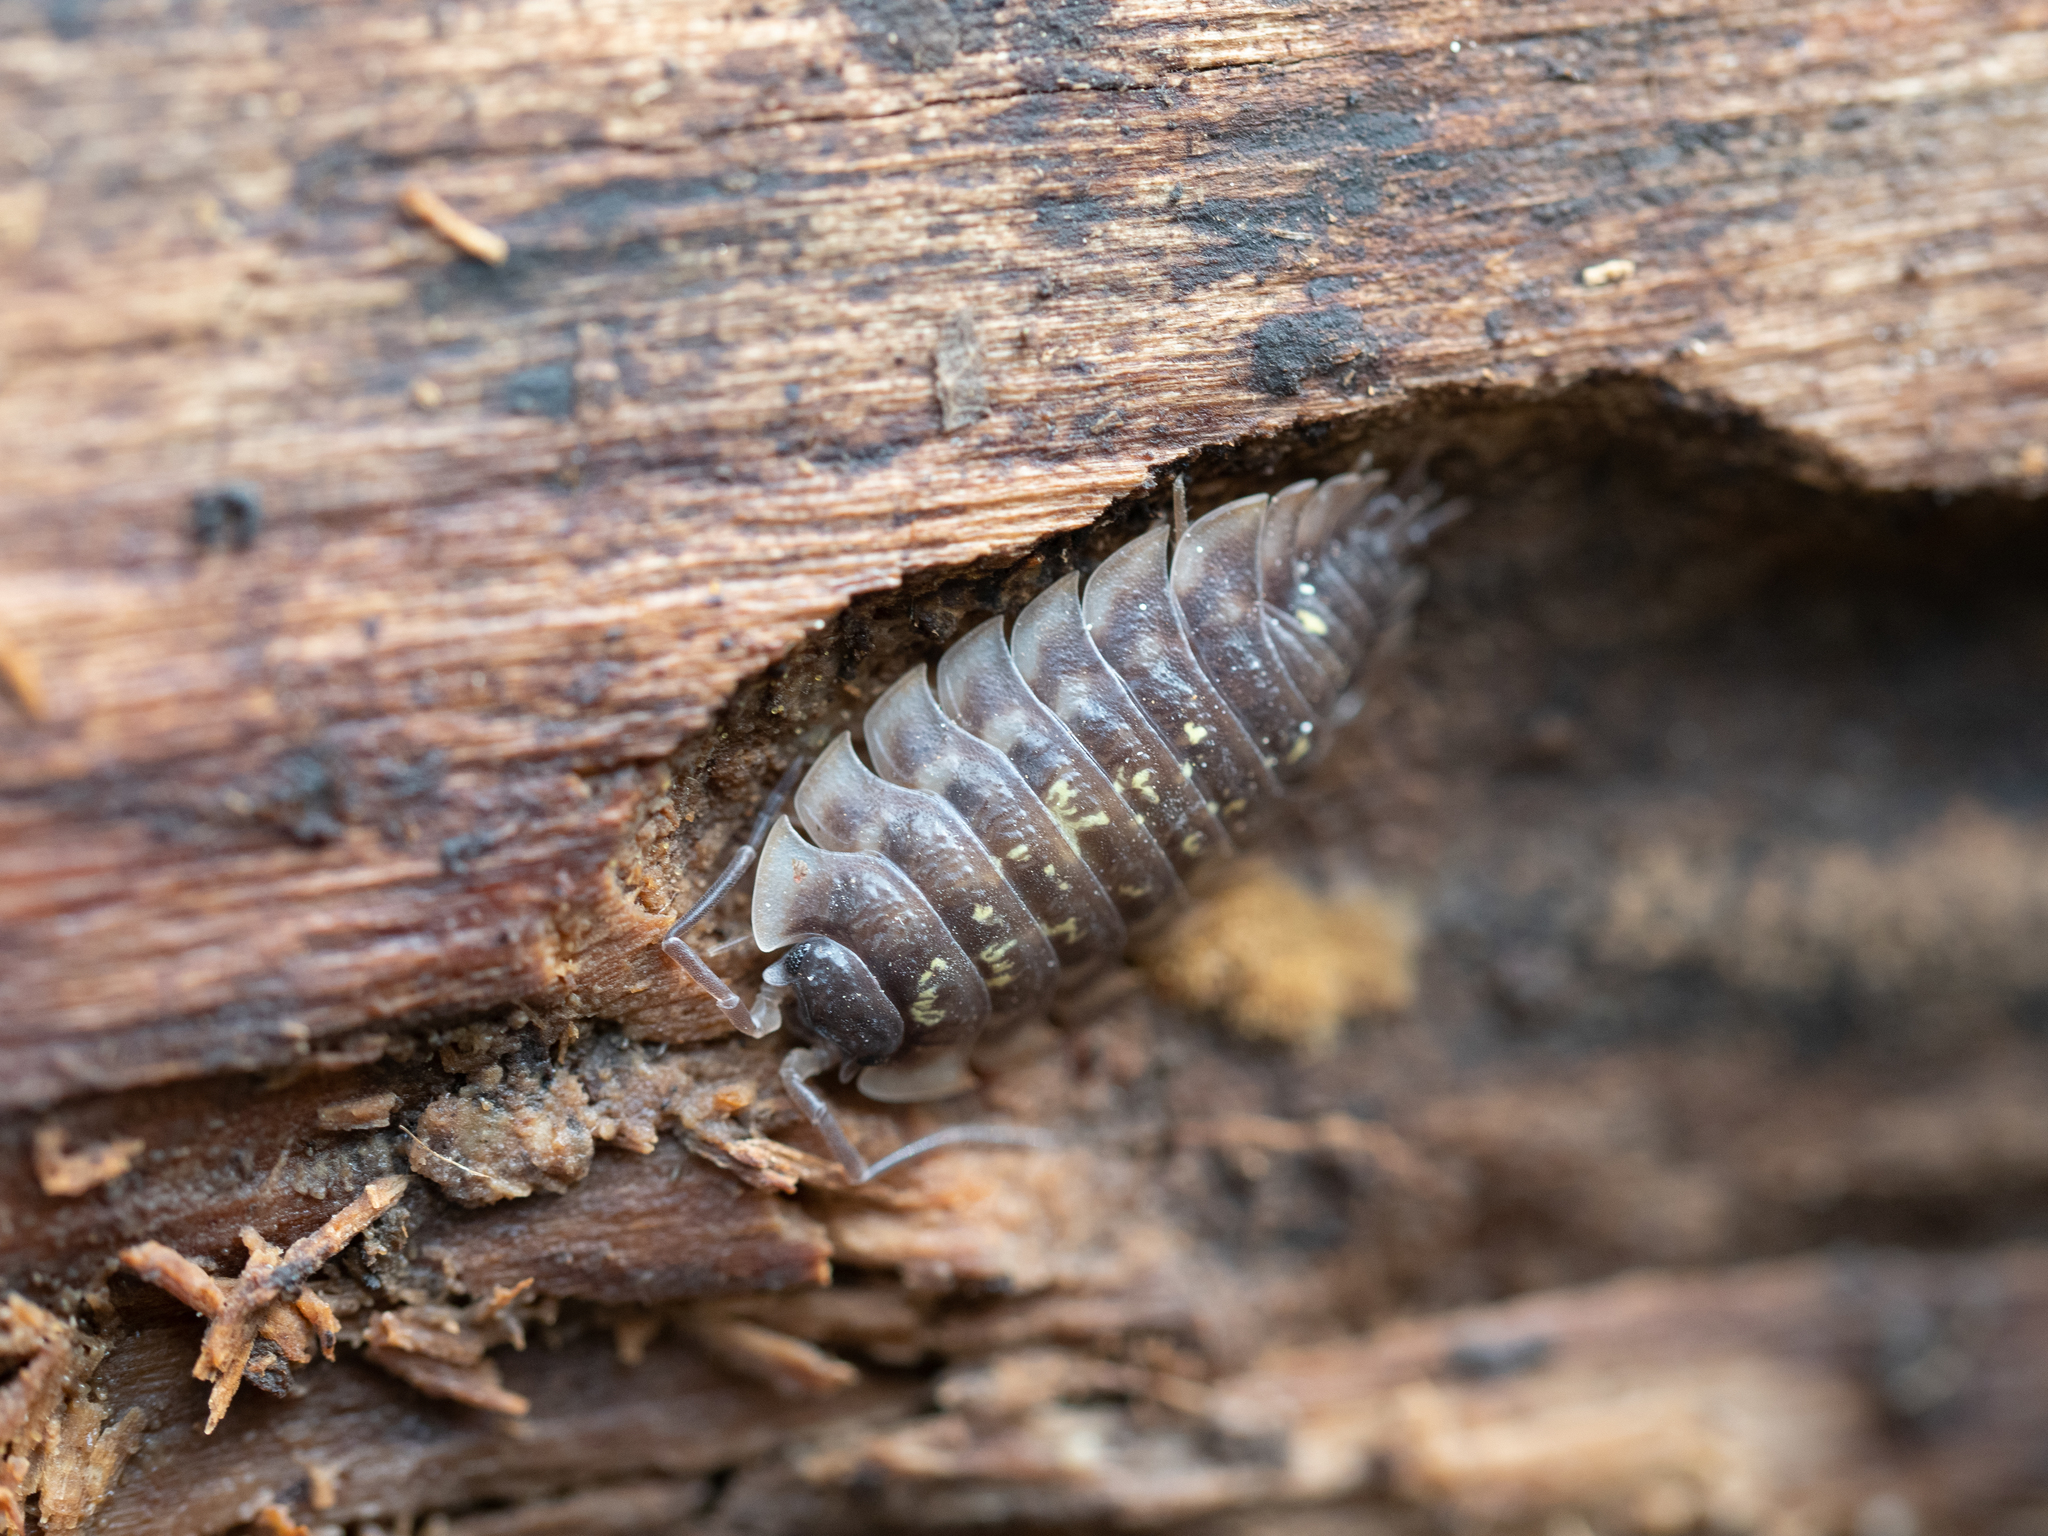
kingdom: Animalia
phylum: Arthropoda
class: Malacostraca
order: Isopoda
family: Oniscidae
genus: Oniscus
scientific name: Oniscus asellus
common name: Common shiny woodlouse
